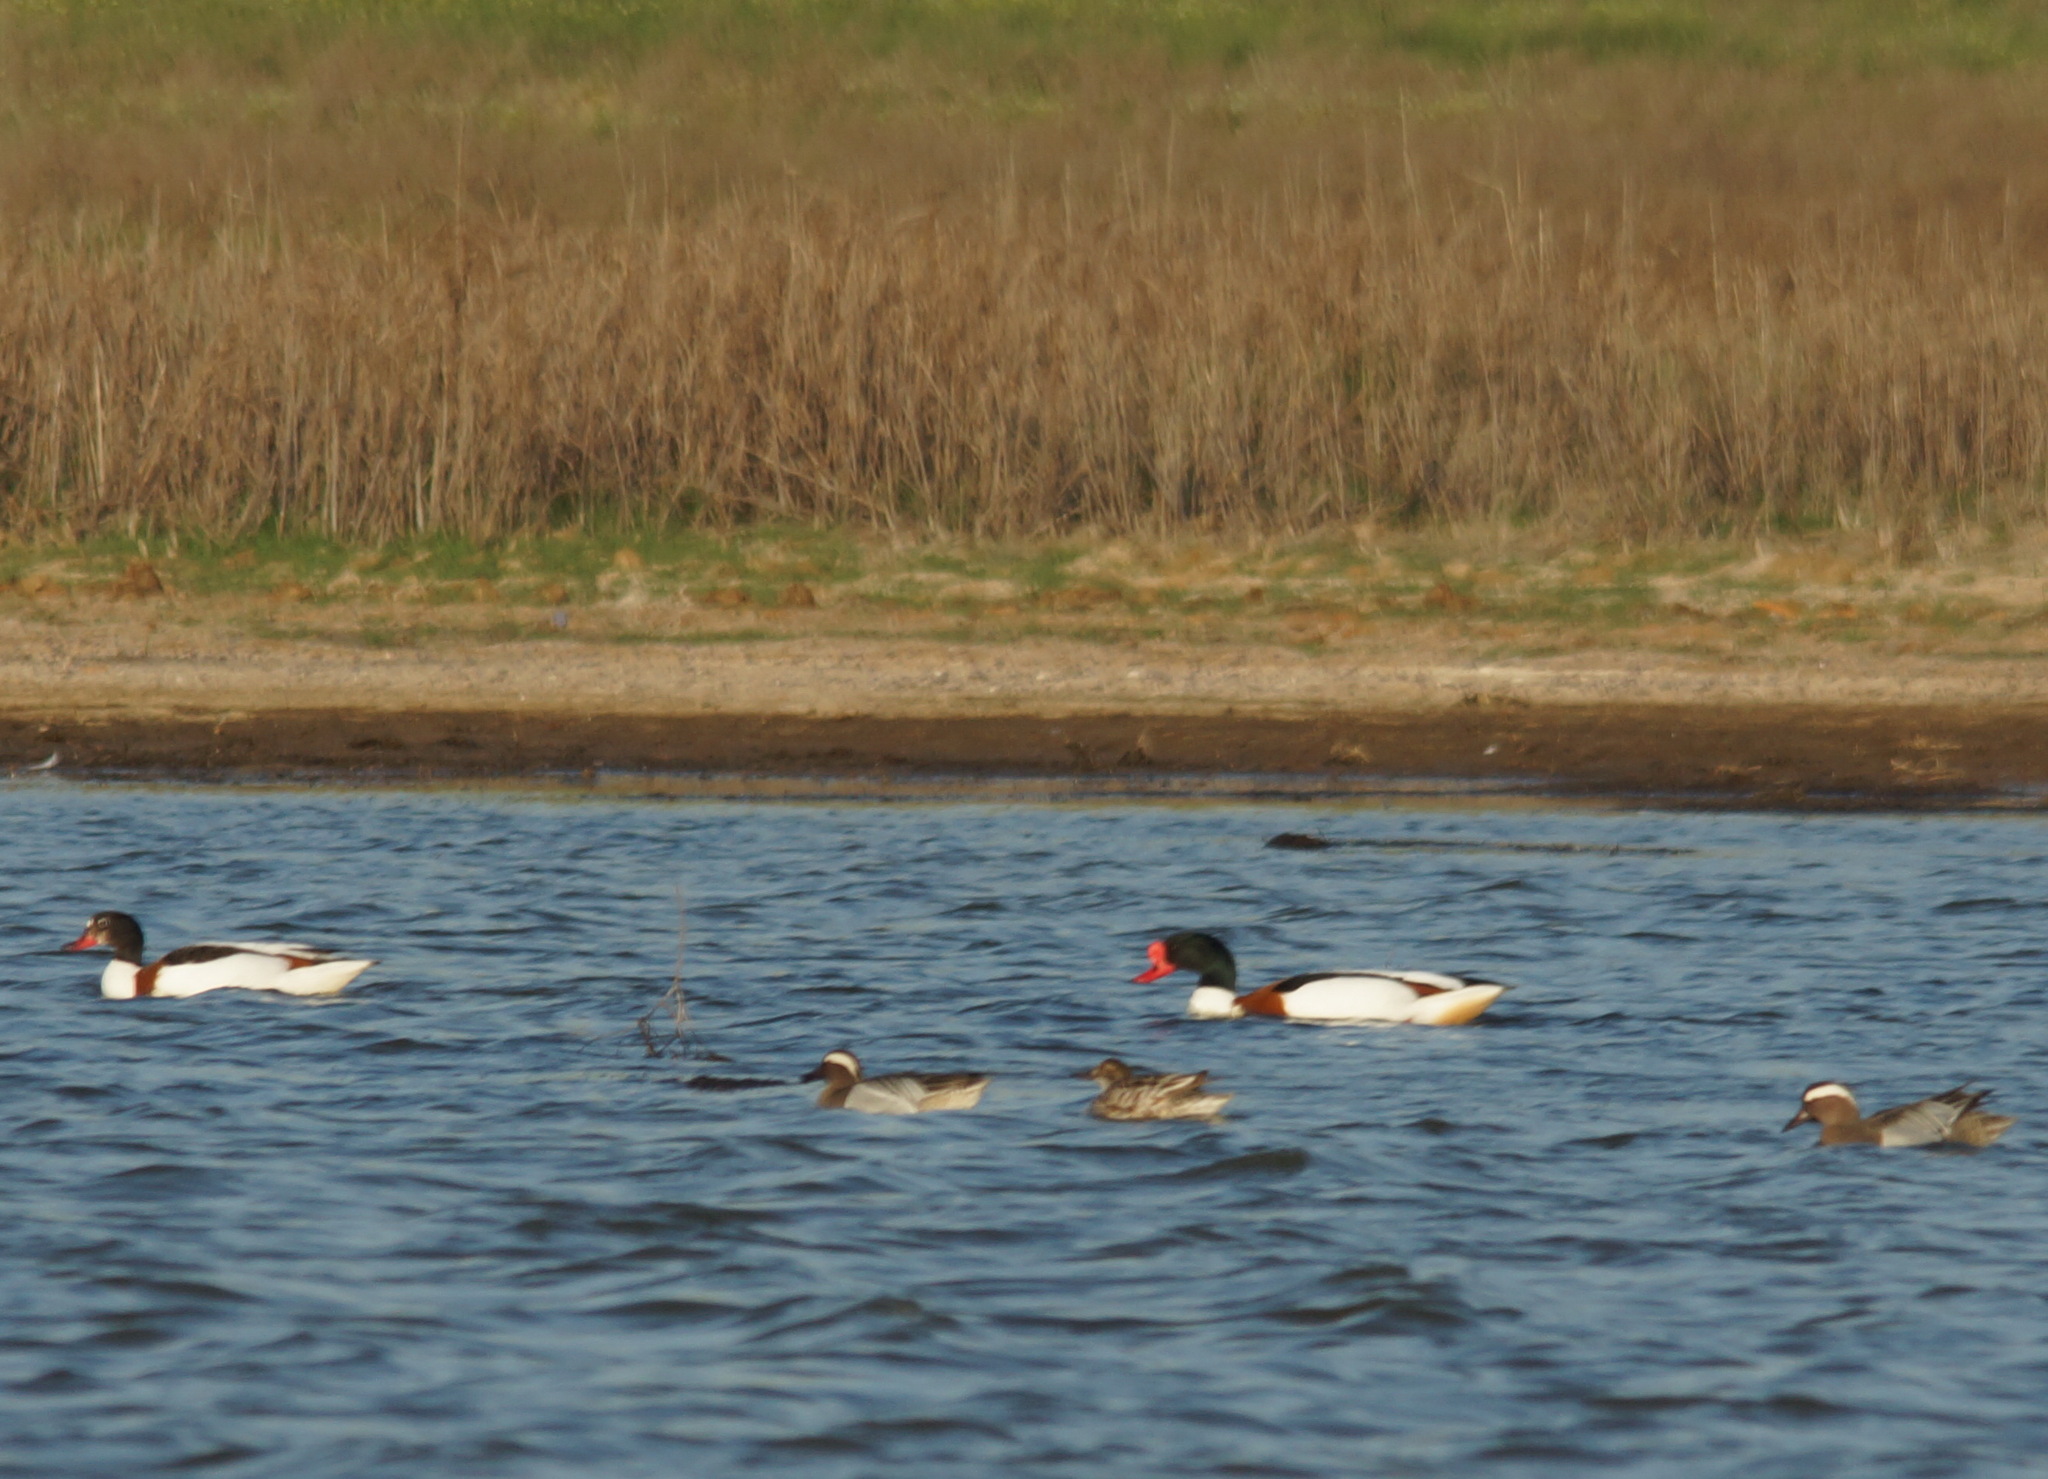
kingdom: Animalia
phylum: Chordata
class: Aves
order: Anseriformes
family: Anatidae
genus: Tadorna
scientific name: Tadorna tadorna
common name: Common shelduck
